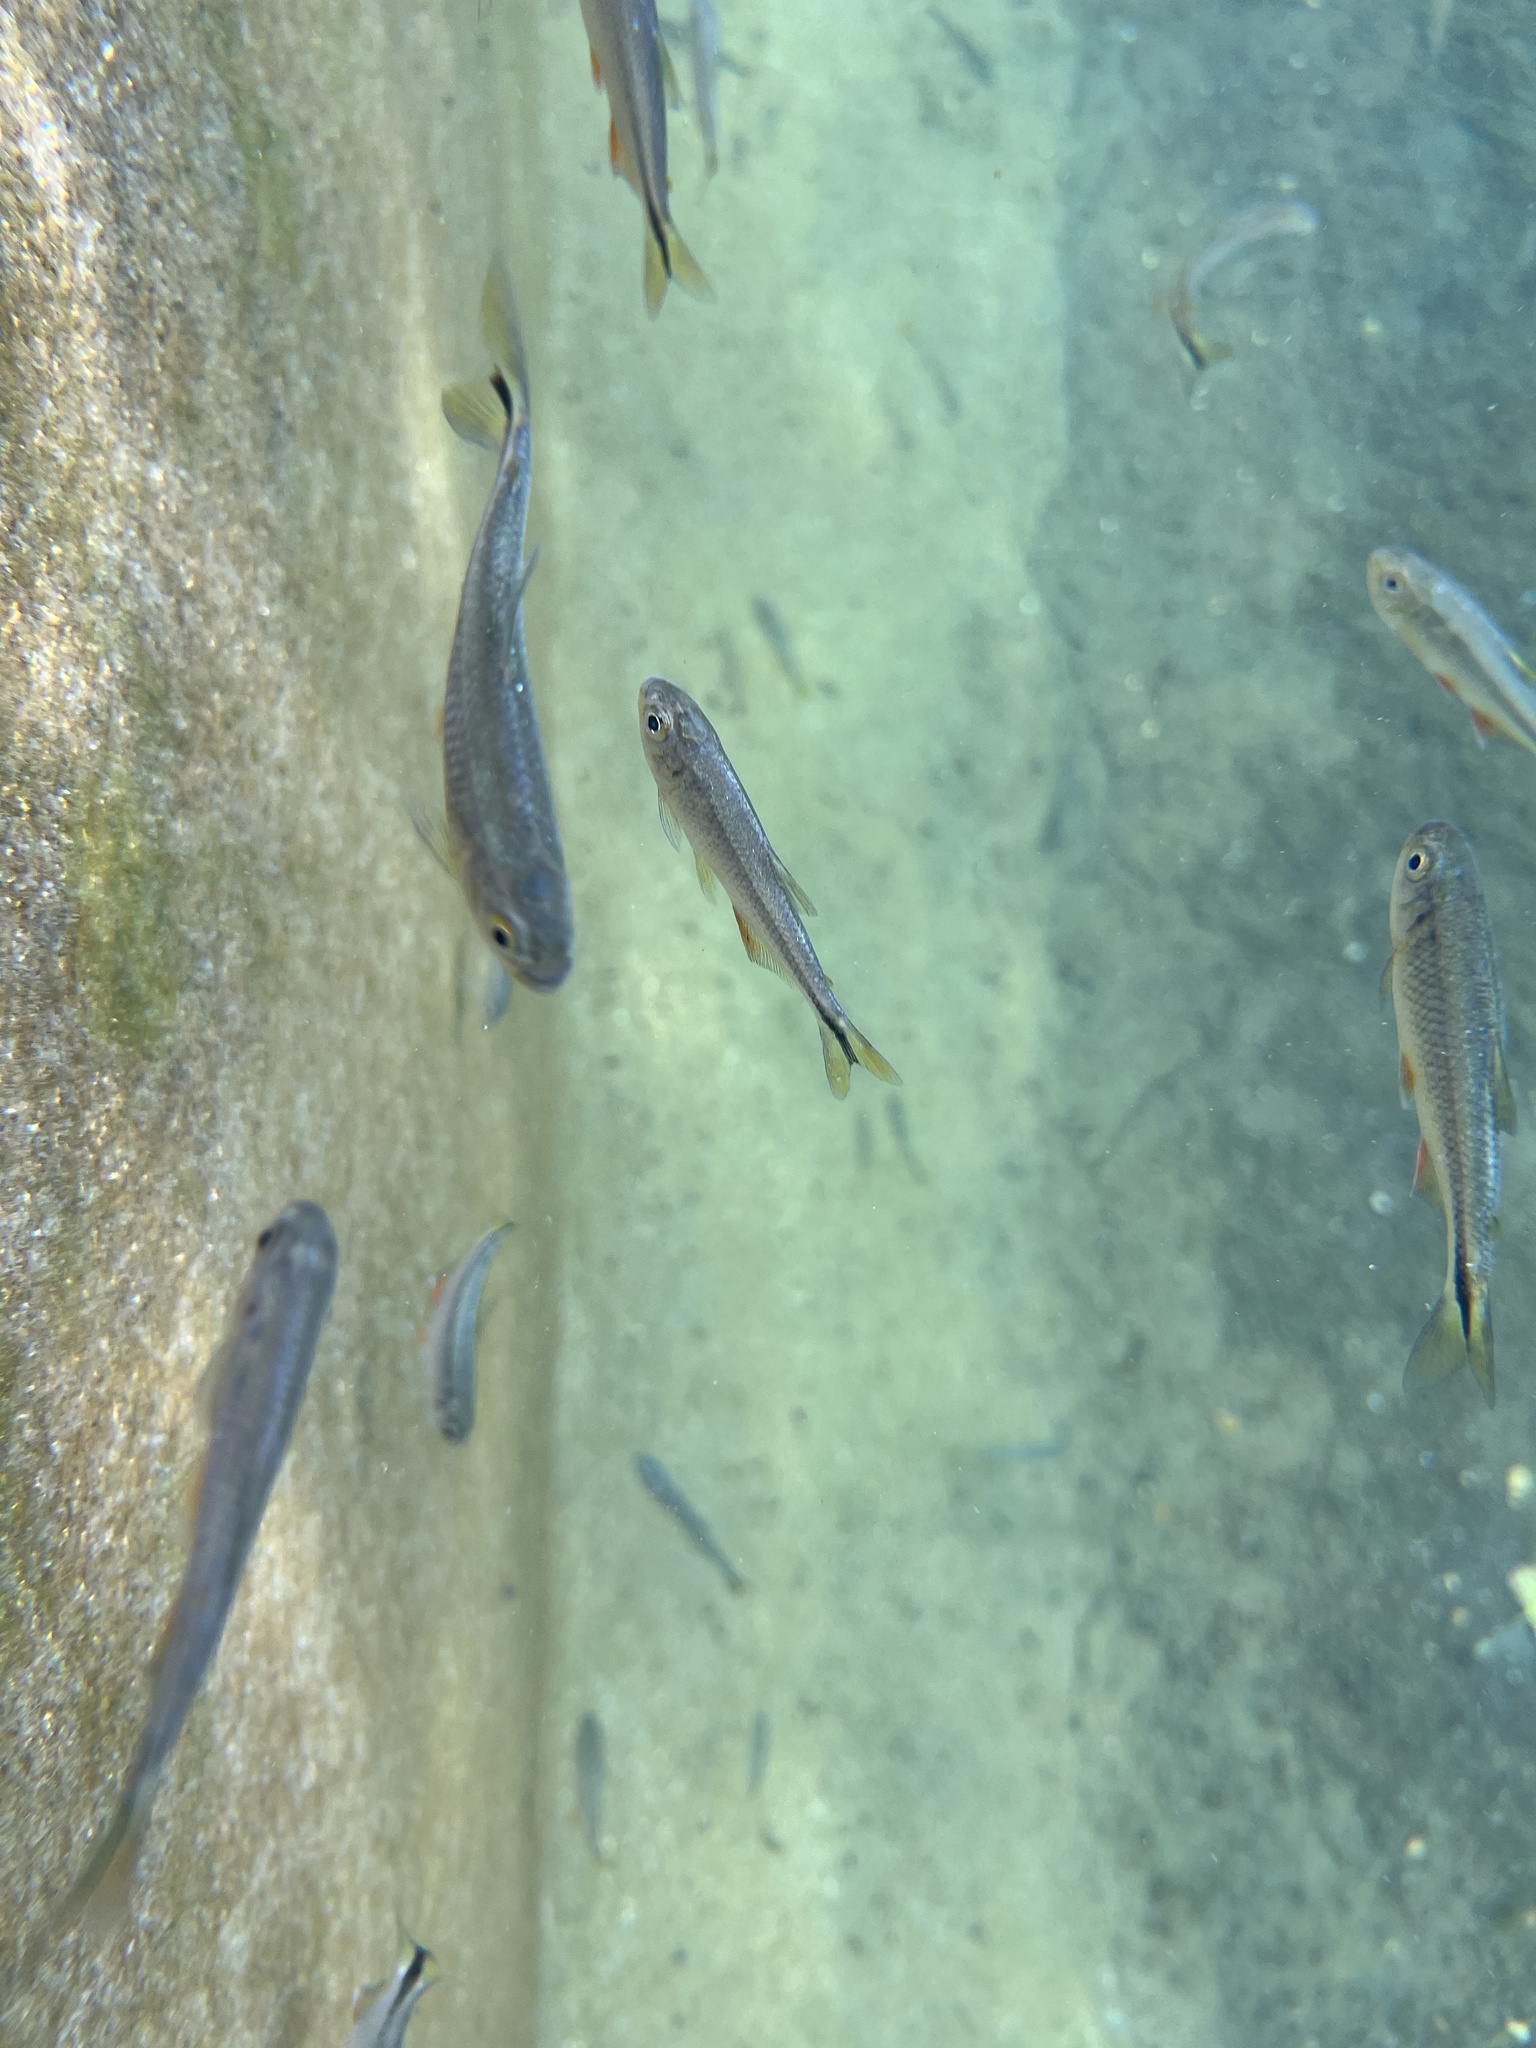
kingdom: Animalia
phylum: Chordata
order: Characiformes
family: Characidae
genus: Astyanax
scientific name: Astyanax mexicanus
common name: Mexican tetra
